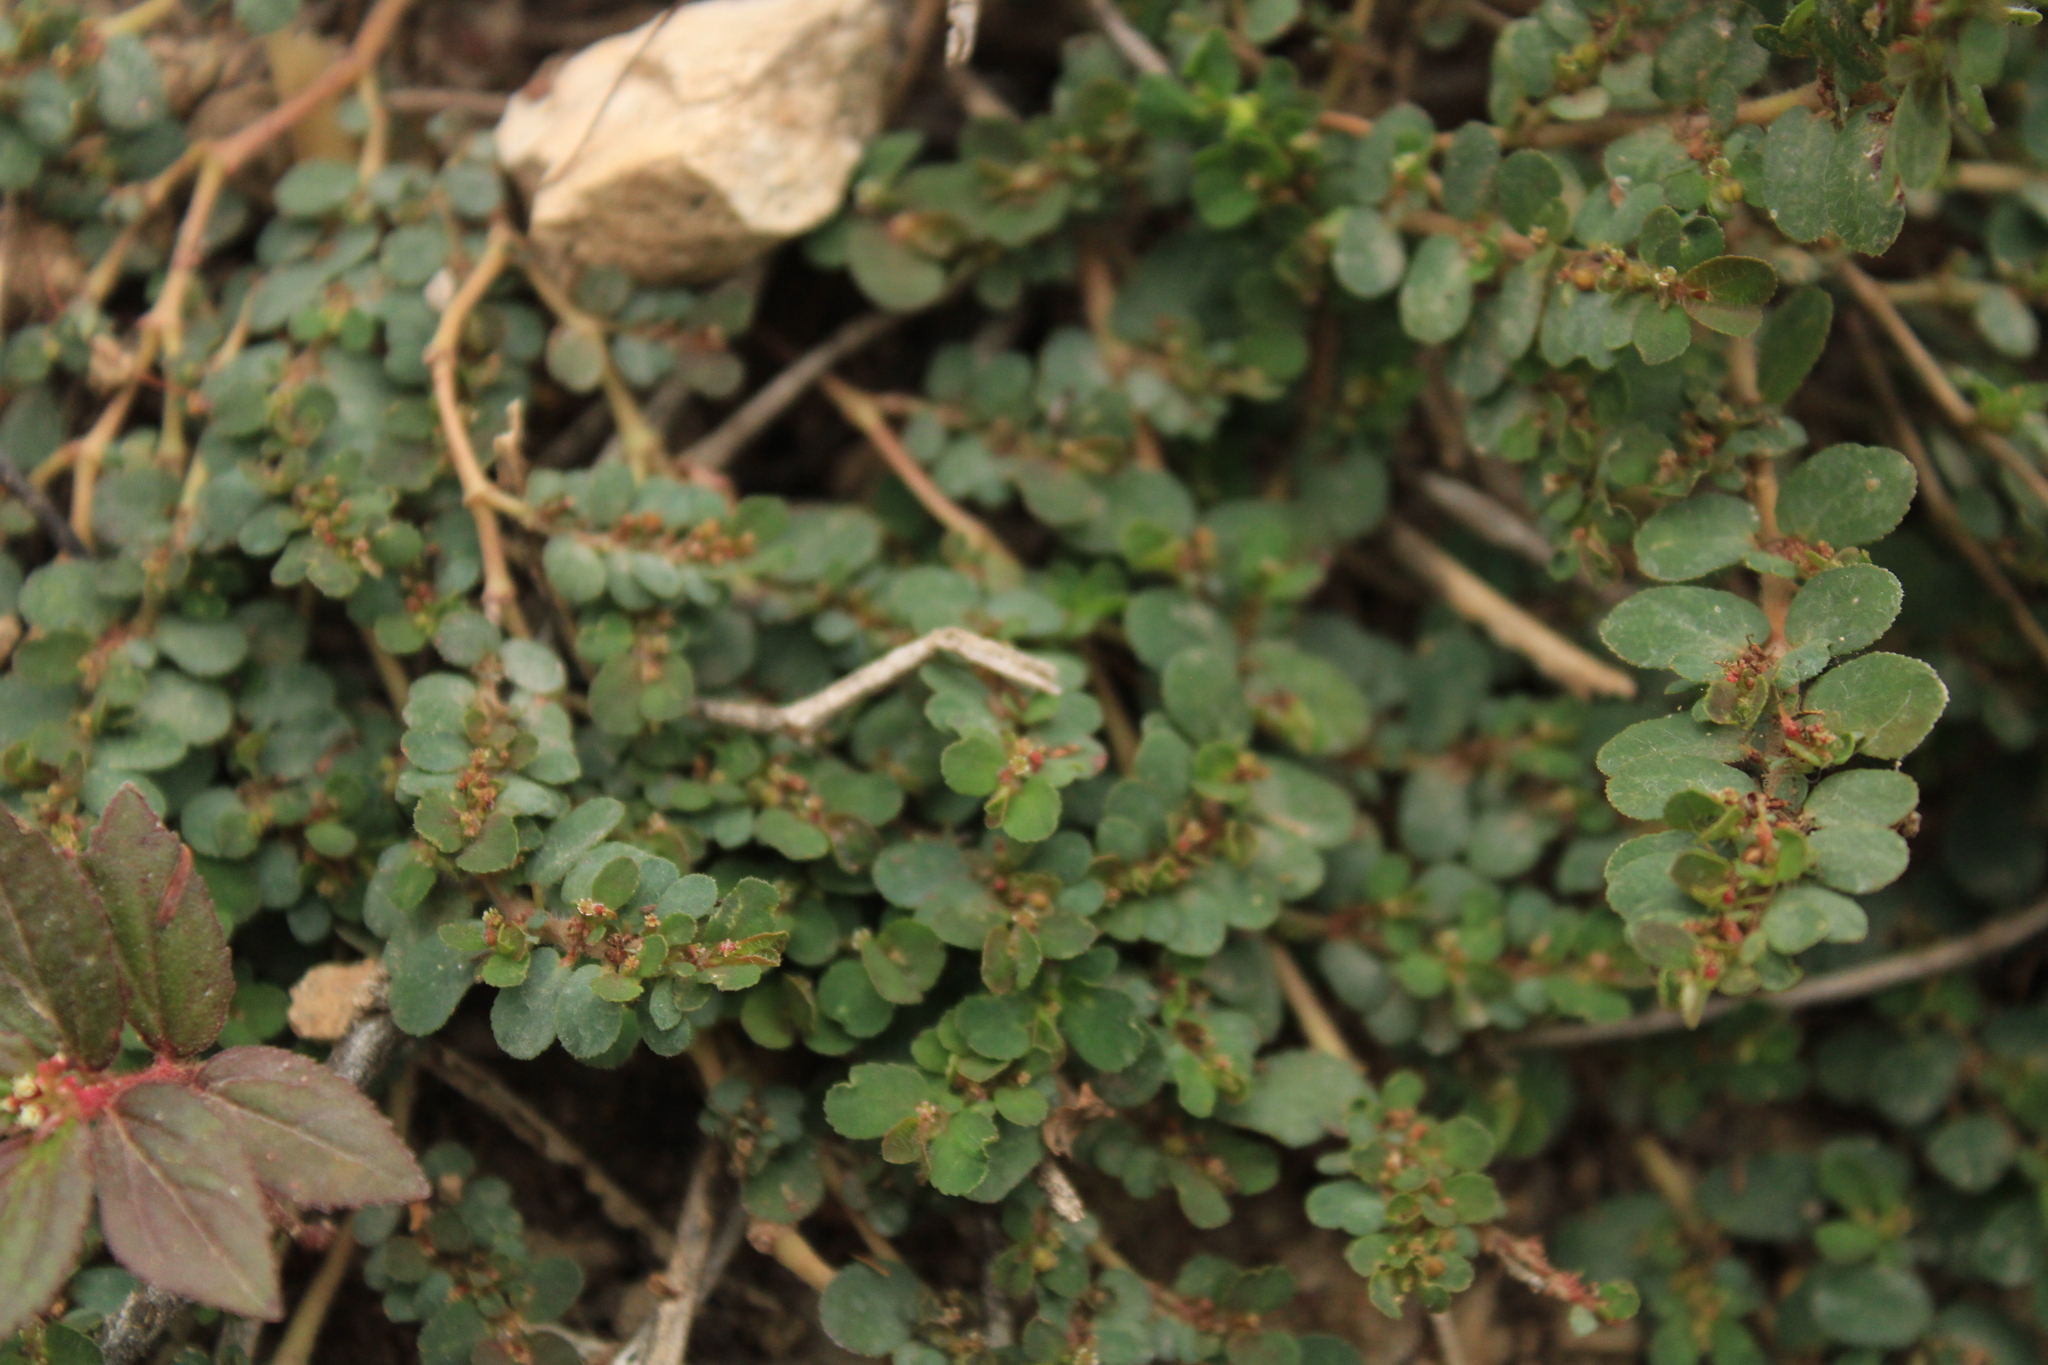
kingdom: Plantae
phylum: Tracheophyta
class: Magnoliopsida
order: Malpighiales
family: Euphorbiaceae
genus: Euphorbia
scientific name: Euphorbia mendezii
